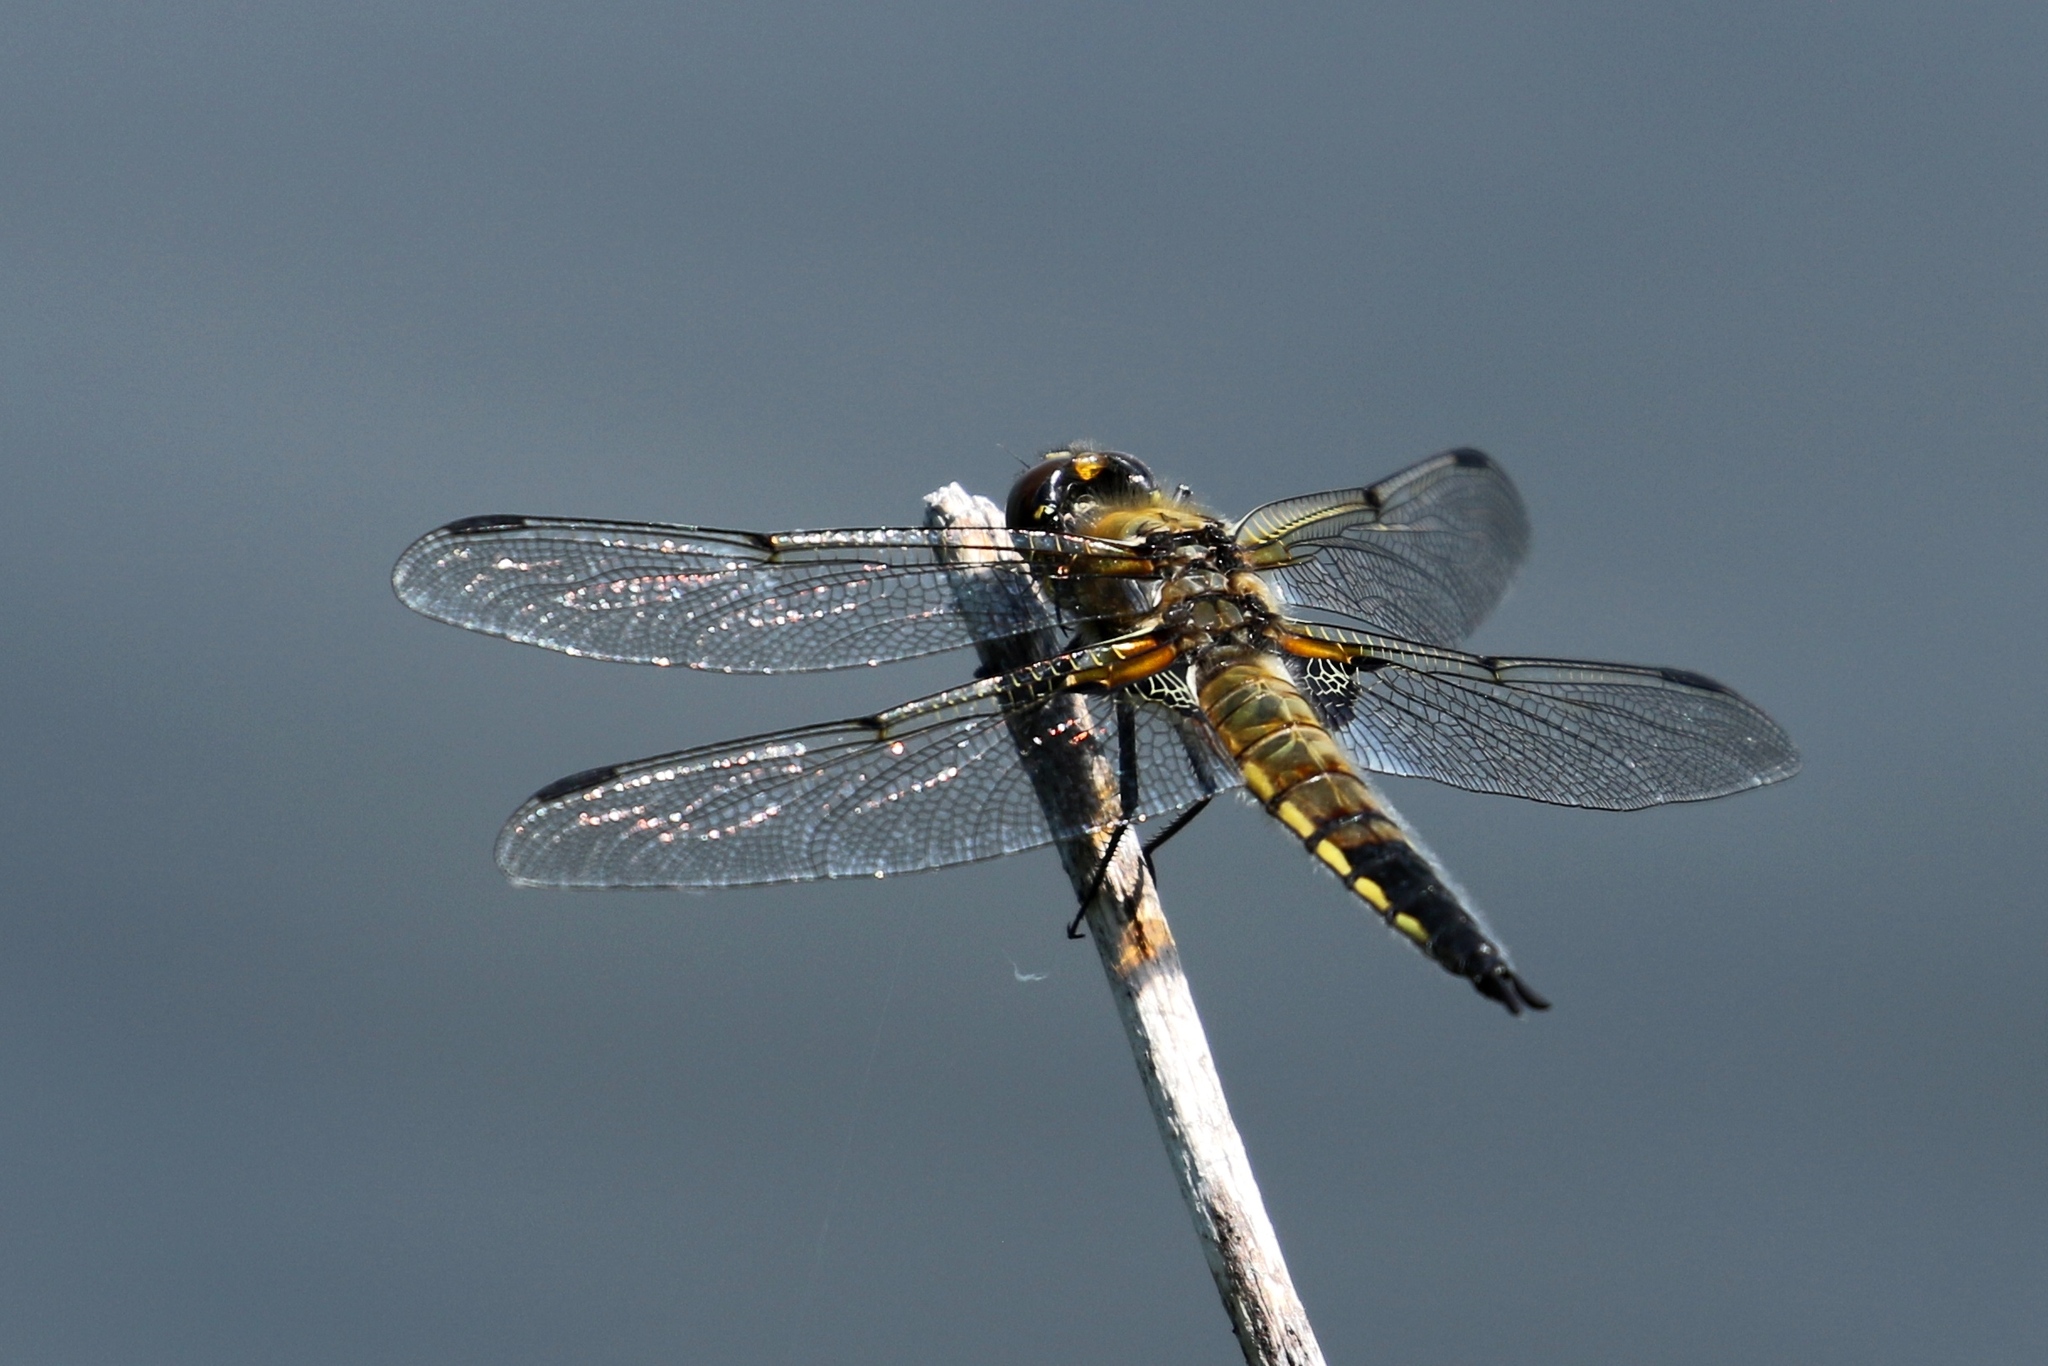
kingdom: Animalia
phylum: Arthropoda
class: Insecta
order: Odonata
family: Libellulidae
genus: Libellula
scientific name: Libellula quadrimaculata
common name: Four-spotted chaser
